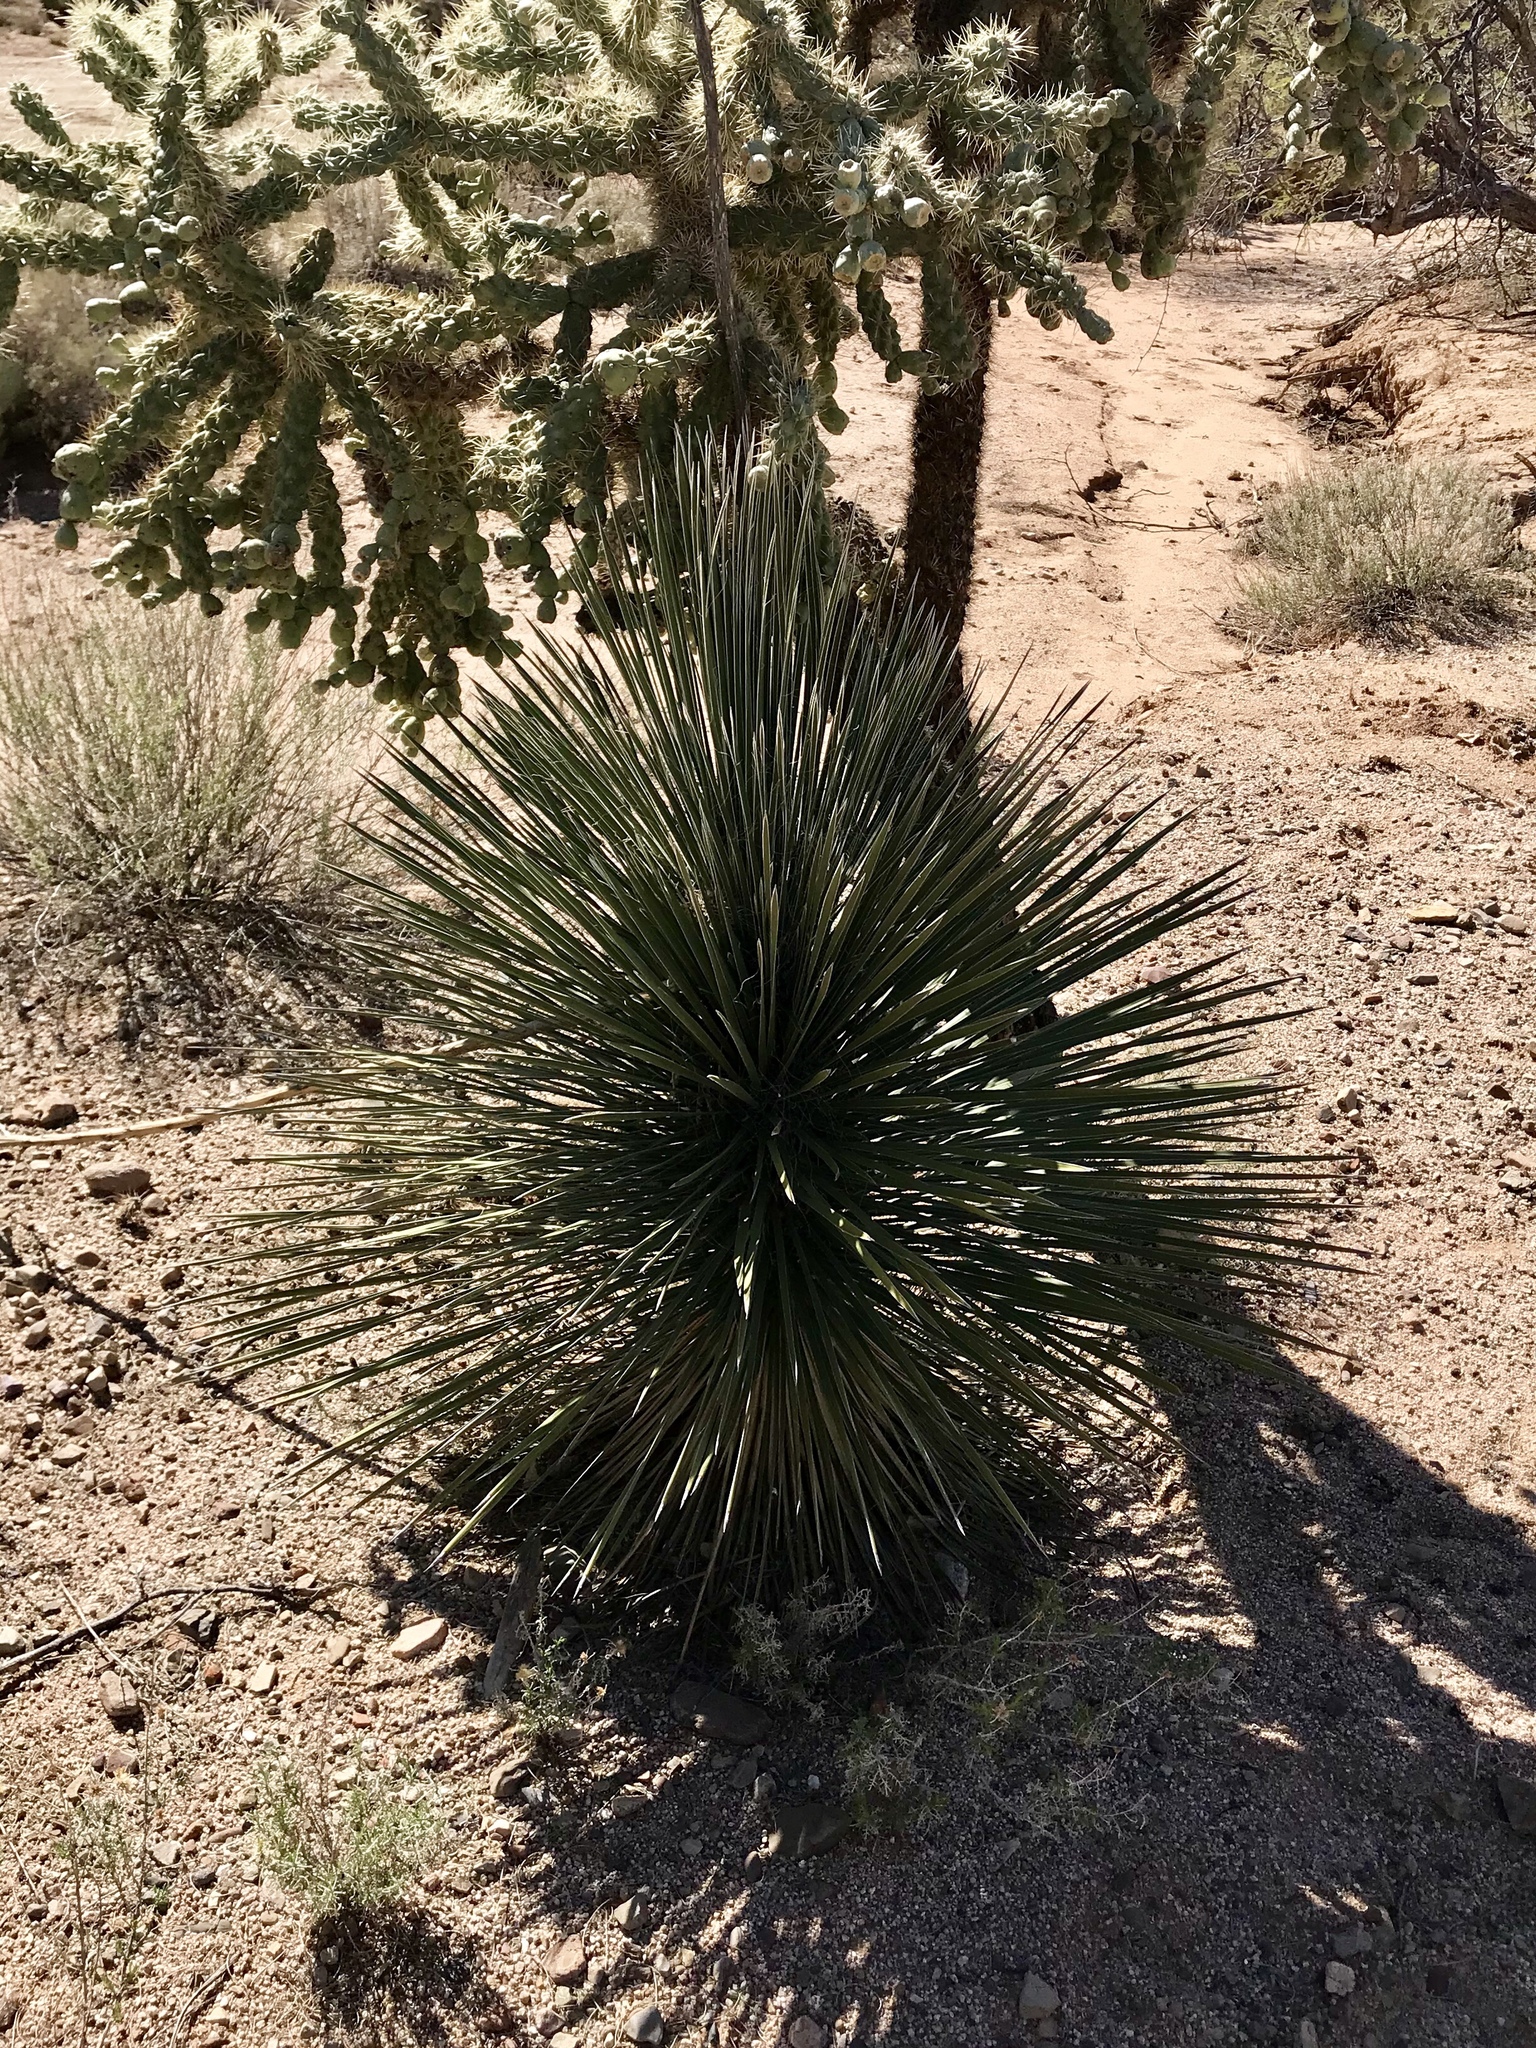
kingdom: Plantae
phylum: Tracheophyta
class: Liliopsida
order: Asparagales
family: Asparagaceae
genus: Yucca
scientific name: Yucca elata
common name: Palmella
